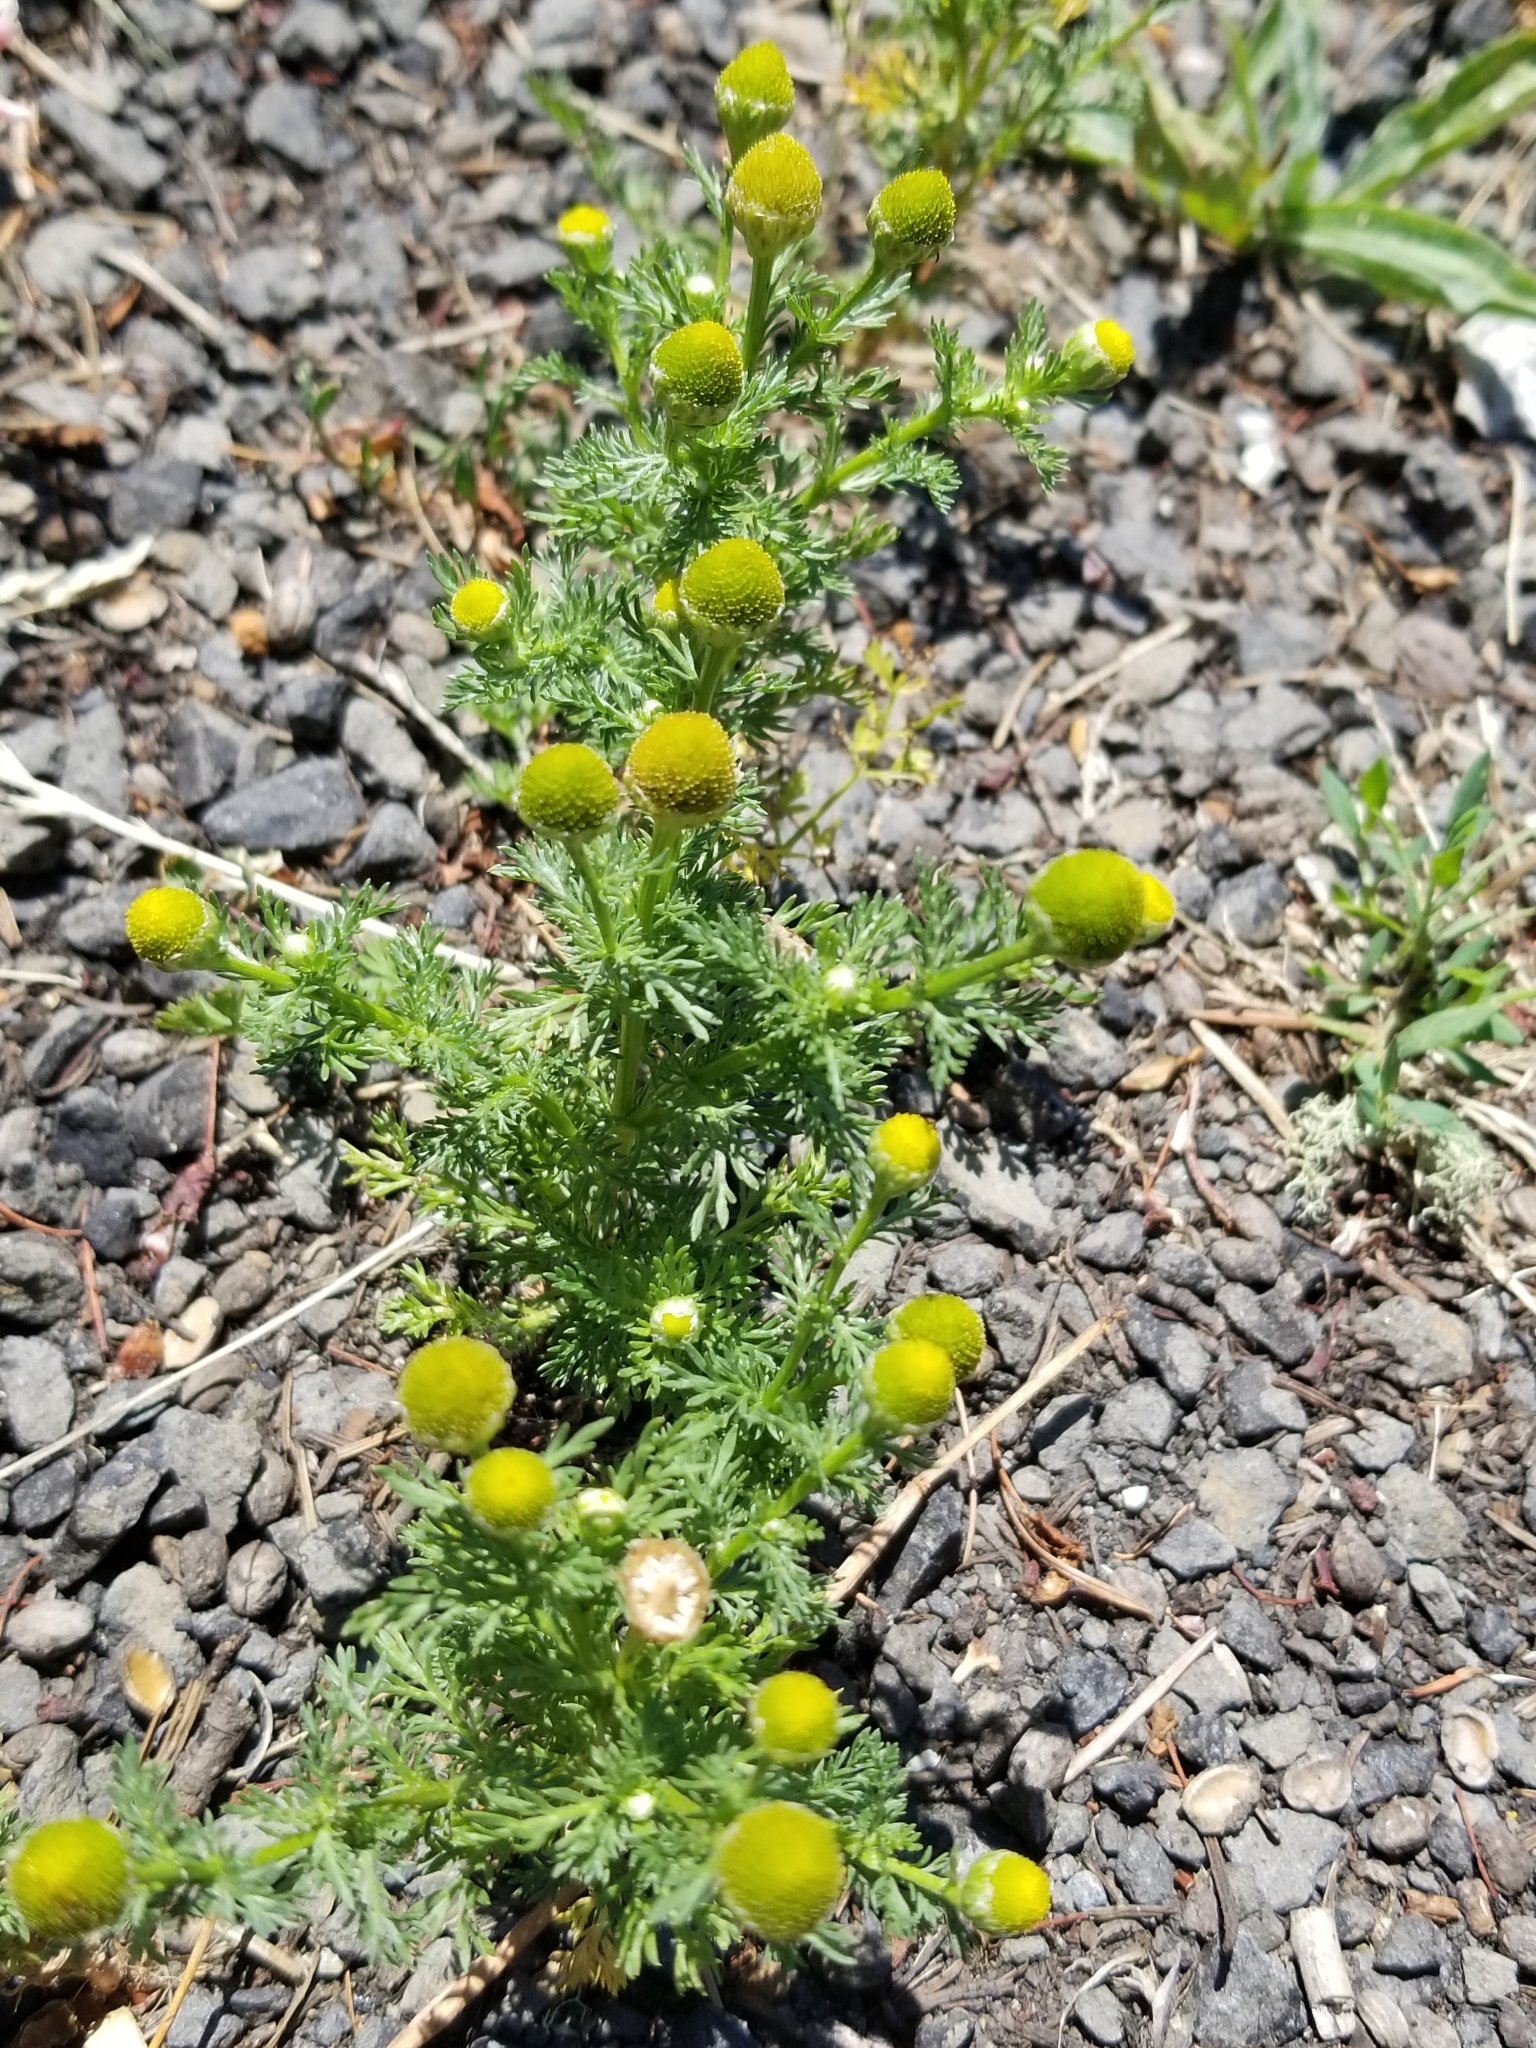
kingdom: Plantae
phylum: Tracheophyta
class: Magnoliopsida
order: Asterales
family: Asteraceae
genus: Matricaria
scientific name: Matricaria discoidea
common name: Disc mayweed
